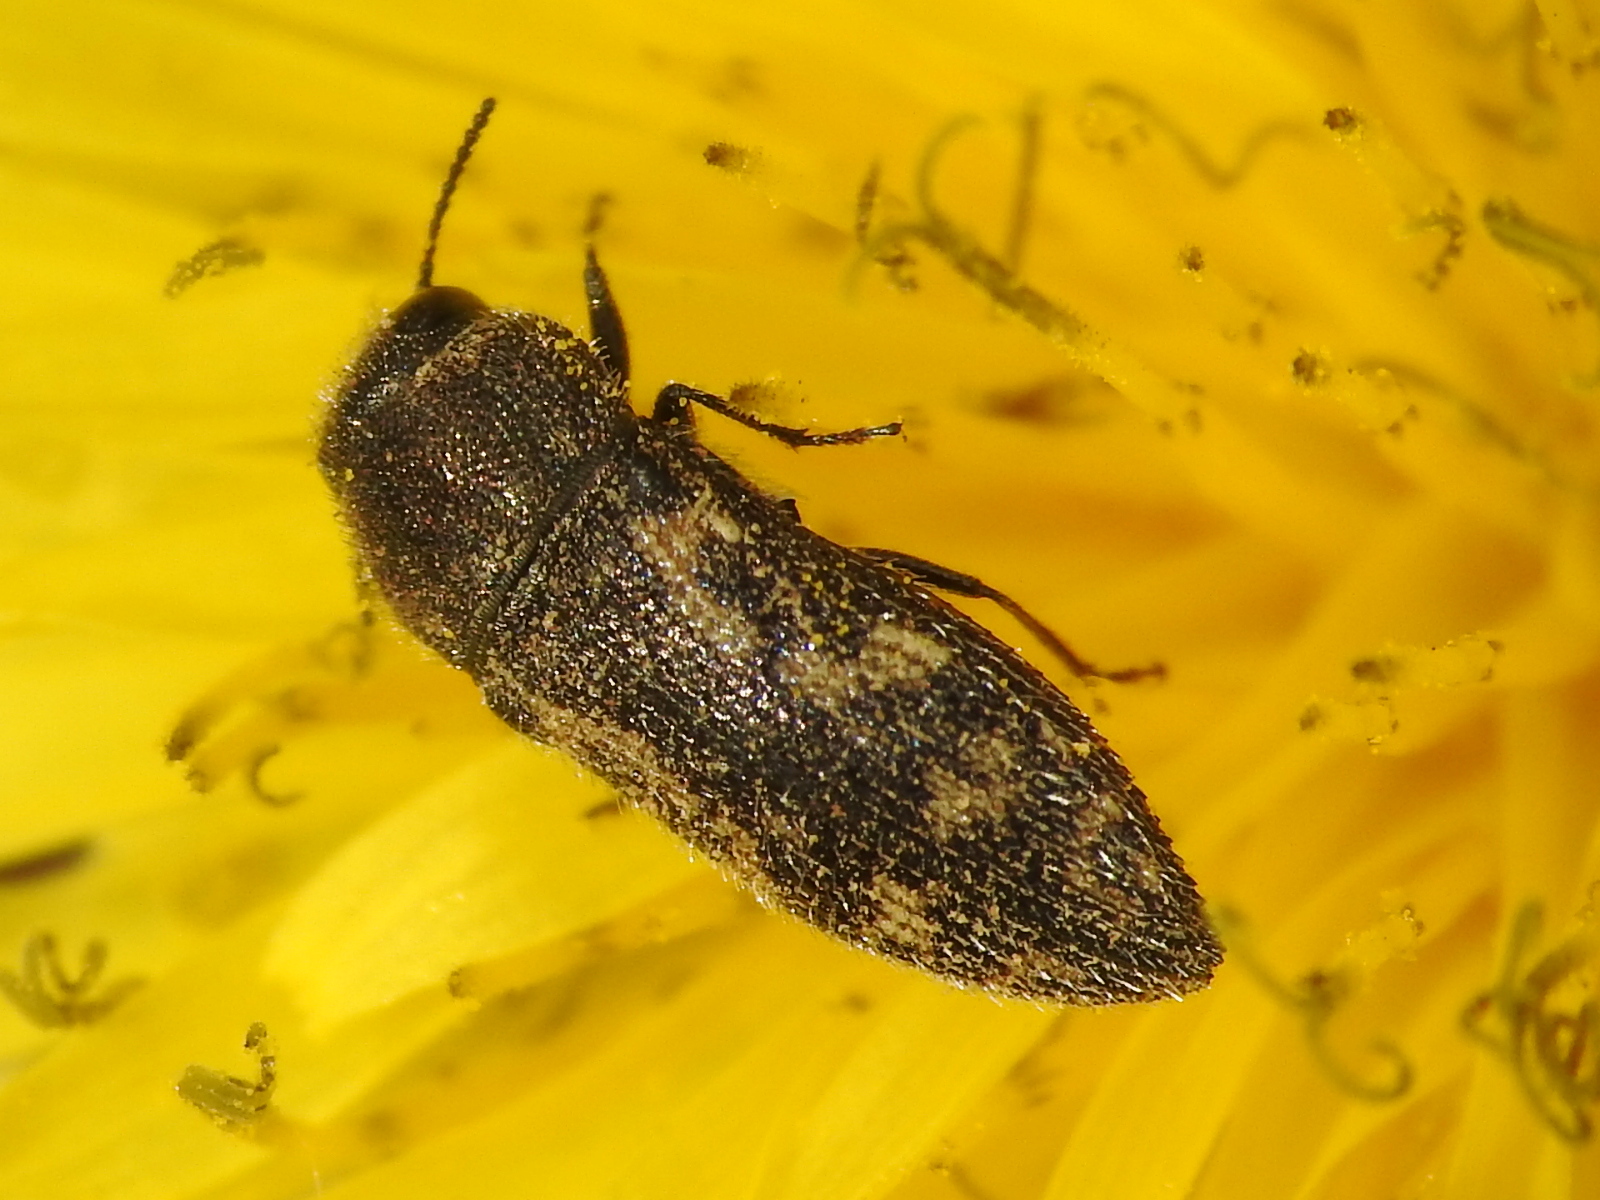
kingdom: Animalia
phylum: Arthropoda
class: Insecta
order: Coleoptera
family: Buprestidae
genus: Acmaeodera
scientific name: Acmaeodera neglecta
